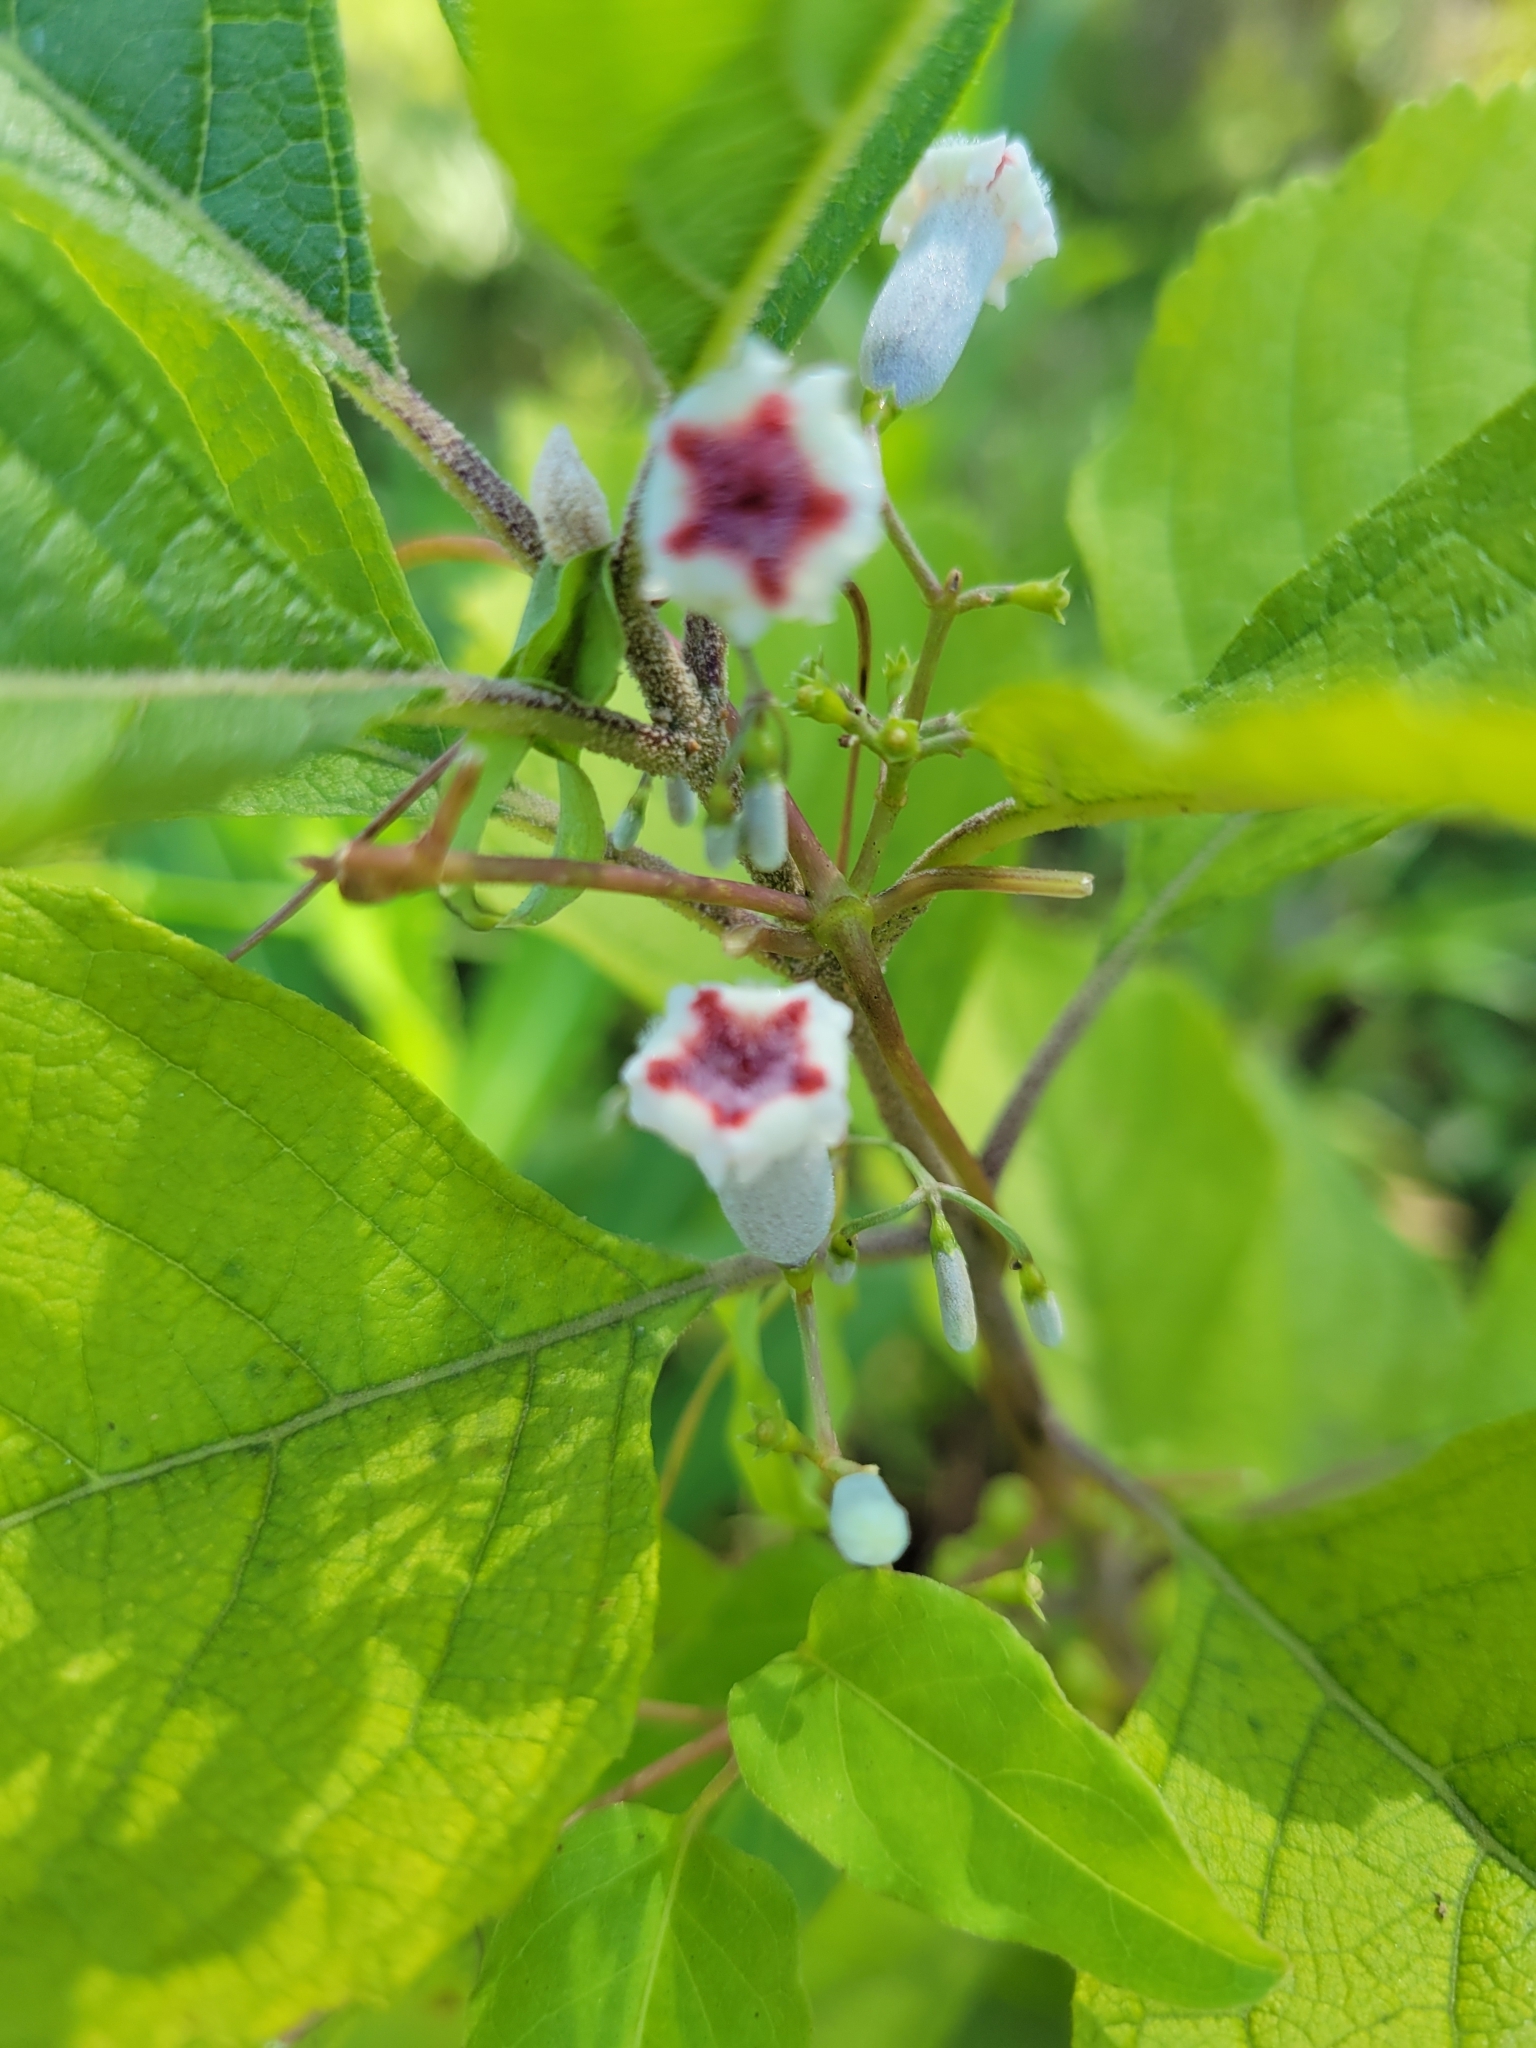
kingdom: Plantae
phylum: Tracheophyta
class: Magnoliopsida
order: Gentianales
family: Rubiaceae
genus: Paederia
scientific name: Paederia foetida
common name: Stinkvine
